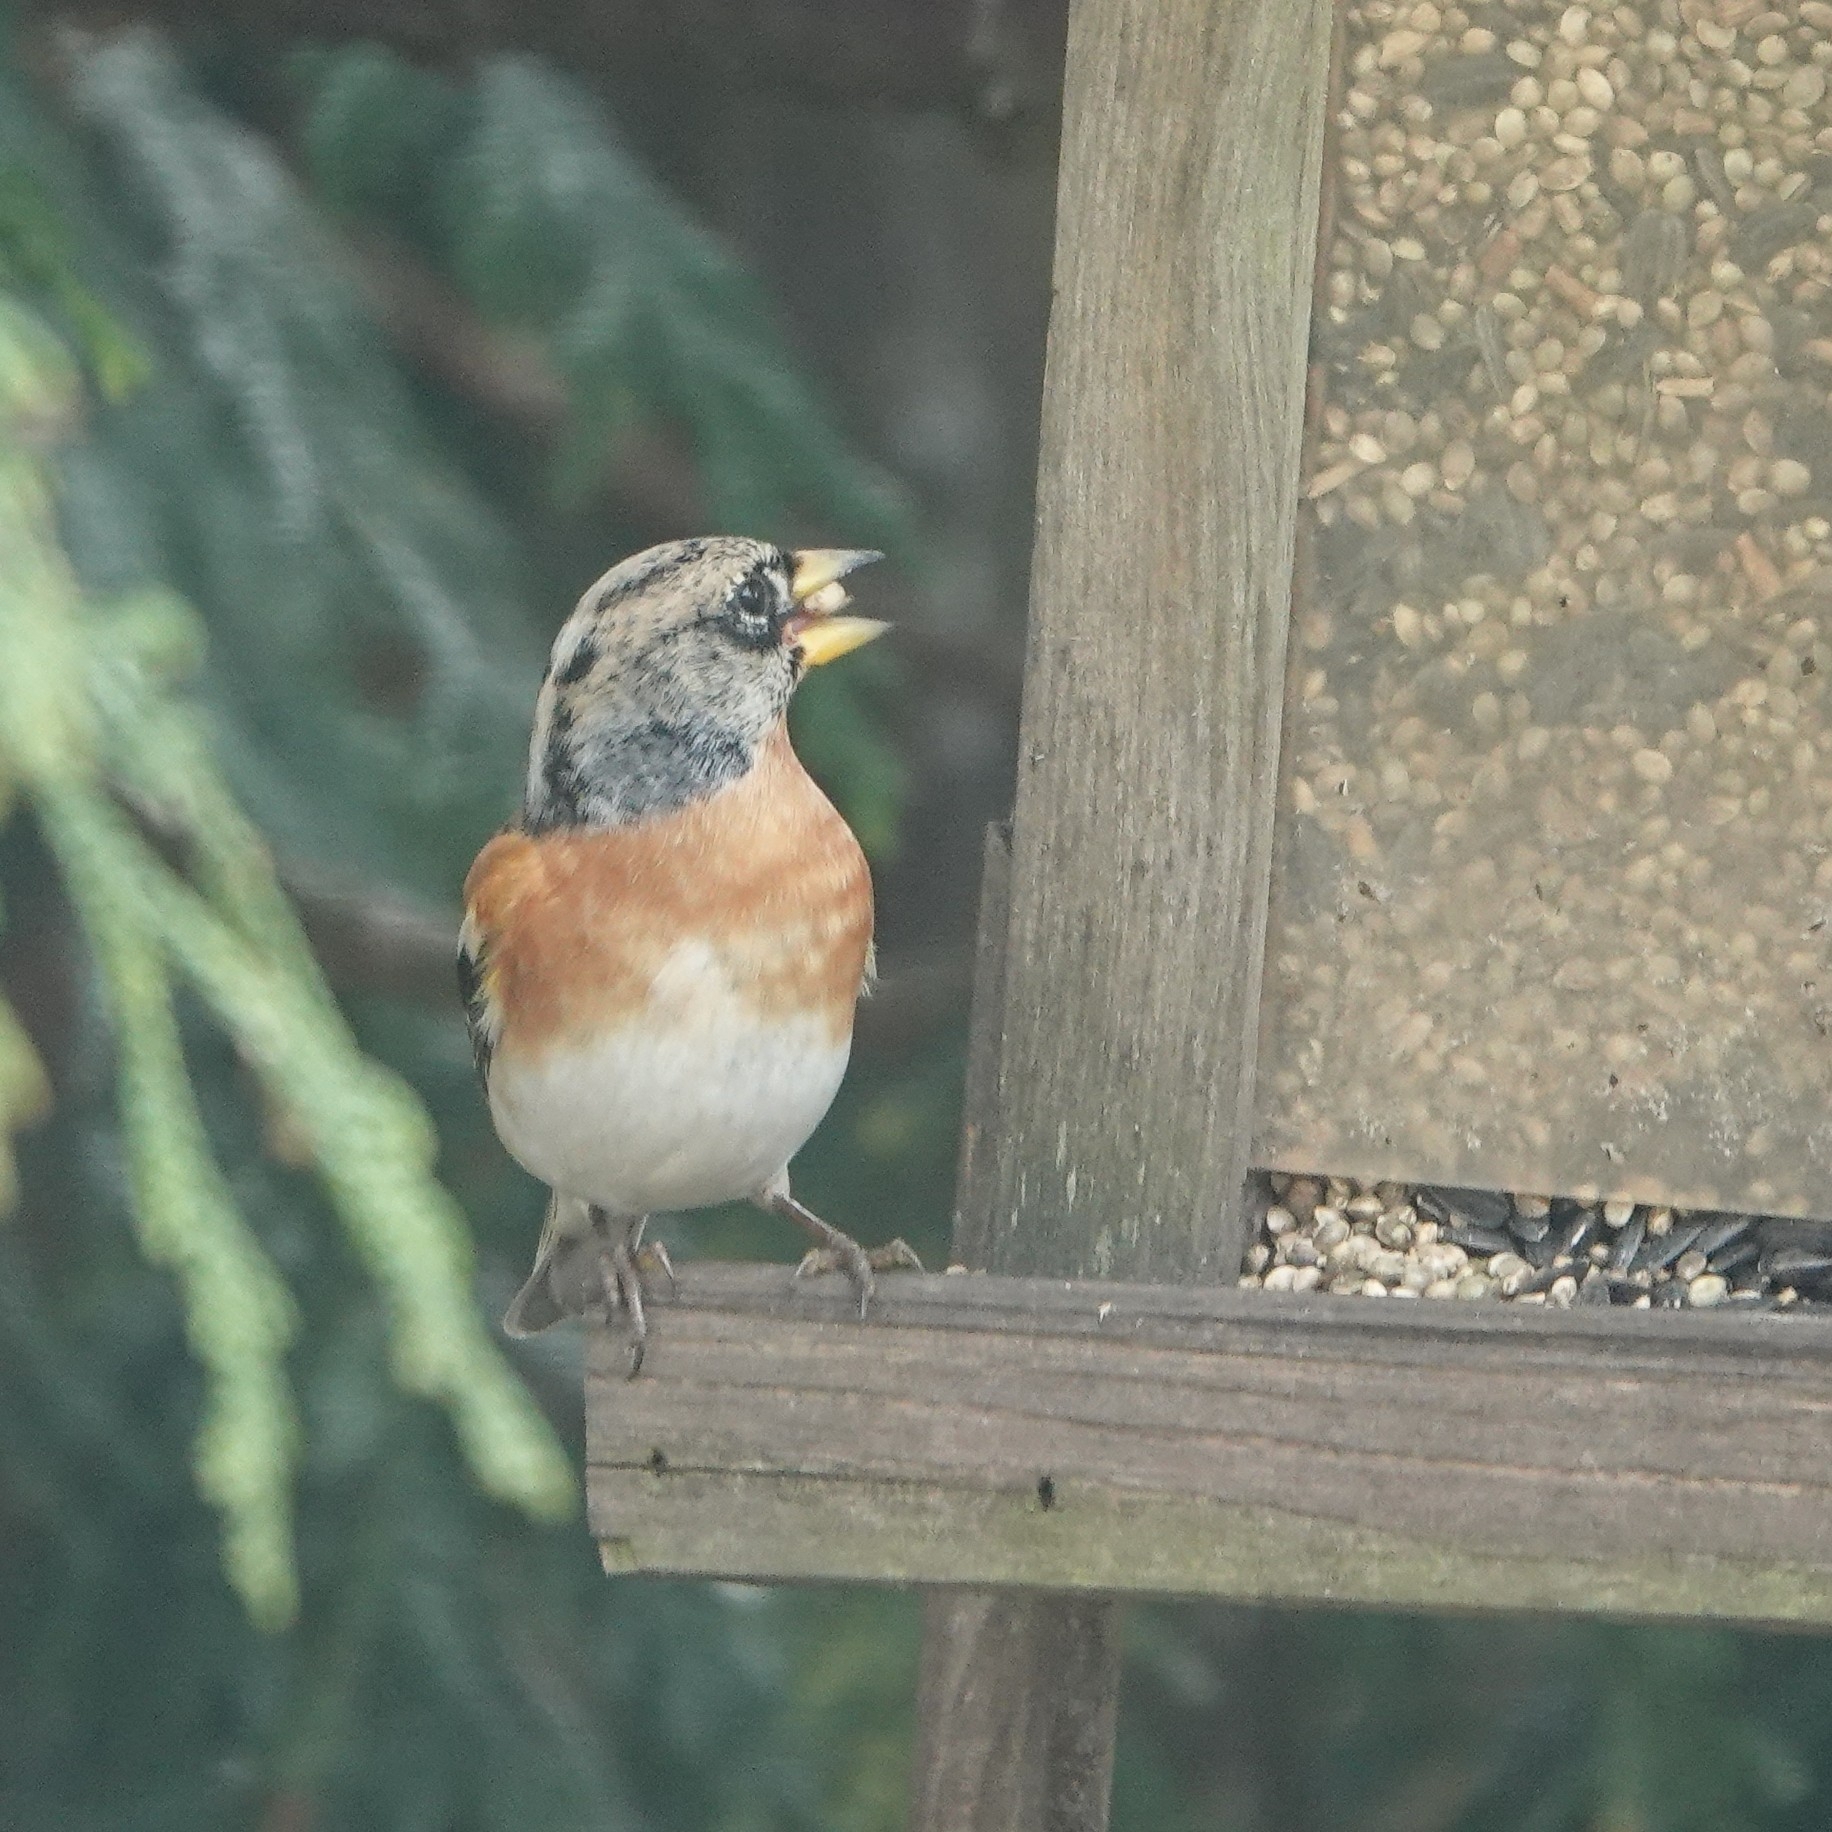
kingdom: Animalia
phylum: Chordata
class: Aves
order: Passeriformes
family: Fringillidae
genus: Fringilla
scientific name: Fringilla montifringilla
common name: Brambling
